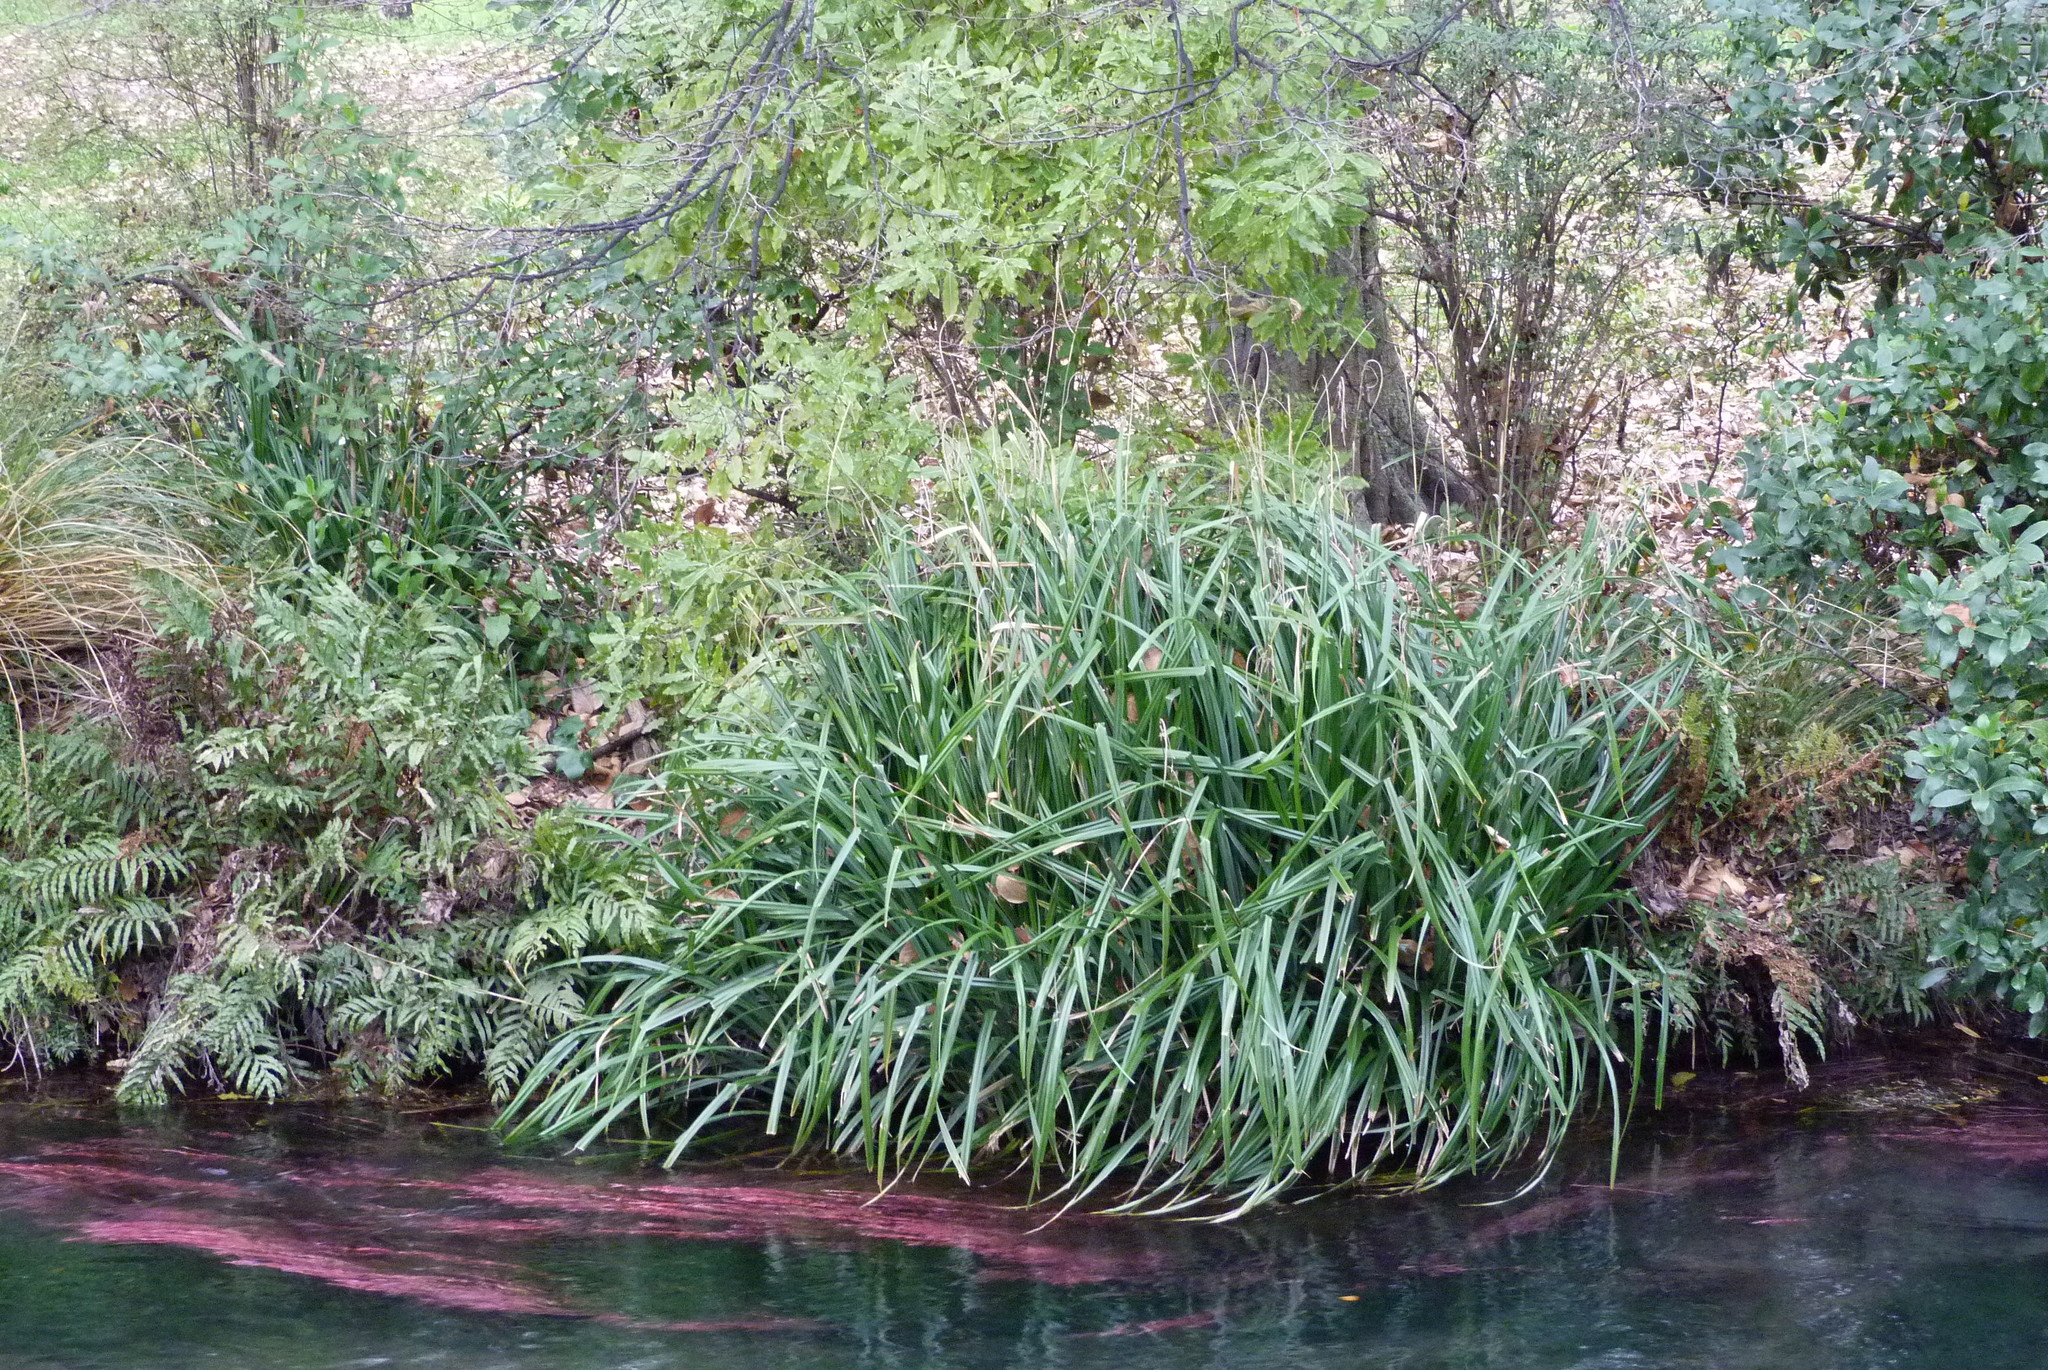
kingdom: Plantae
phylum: Tracheophyta
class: Liliopsida
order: Poales
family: Cyperaceae
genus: Carex
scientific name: Carex pendula
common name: Pendulous sedge
